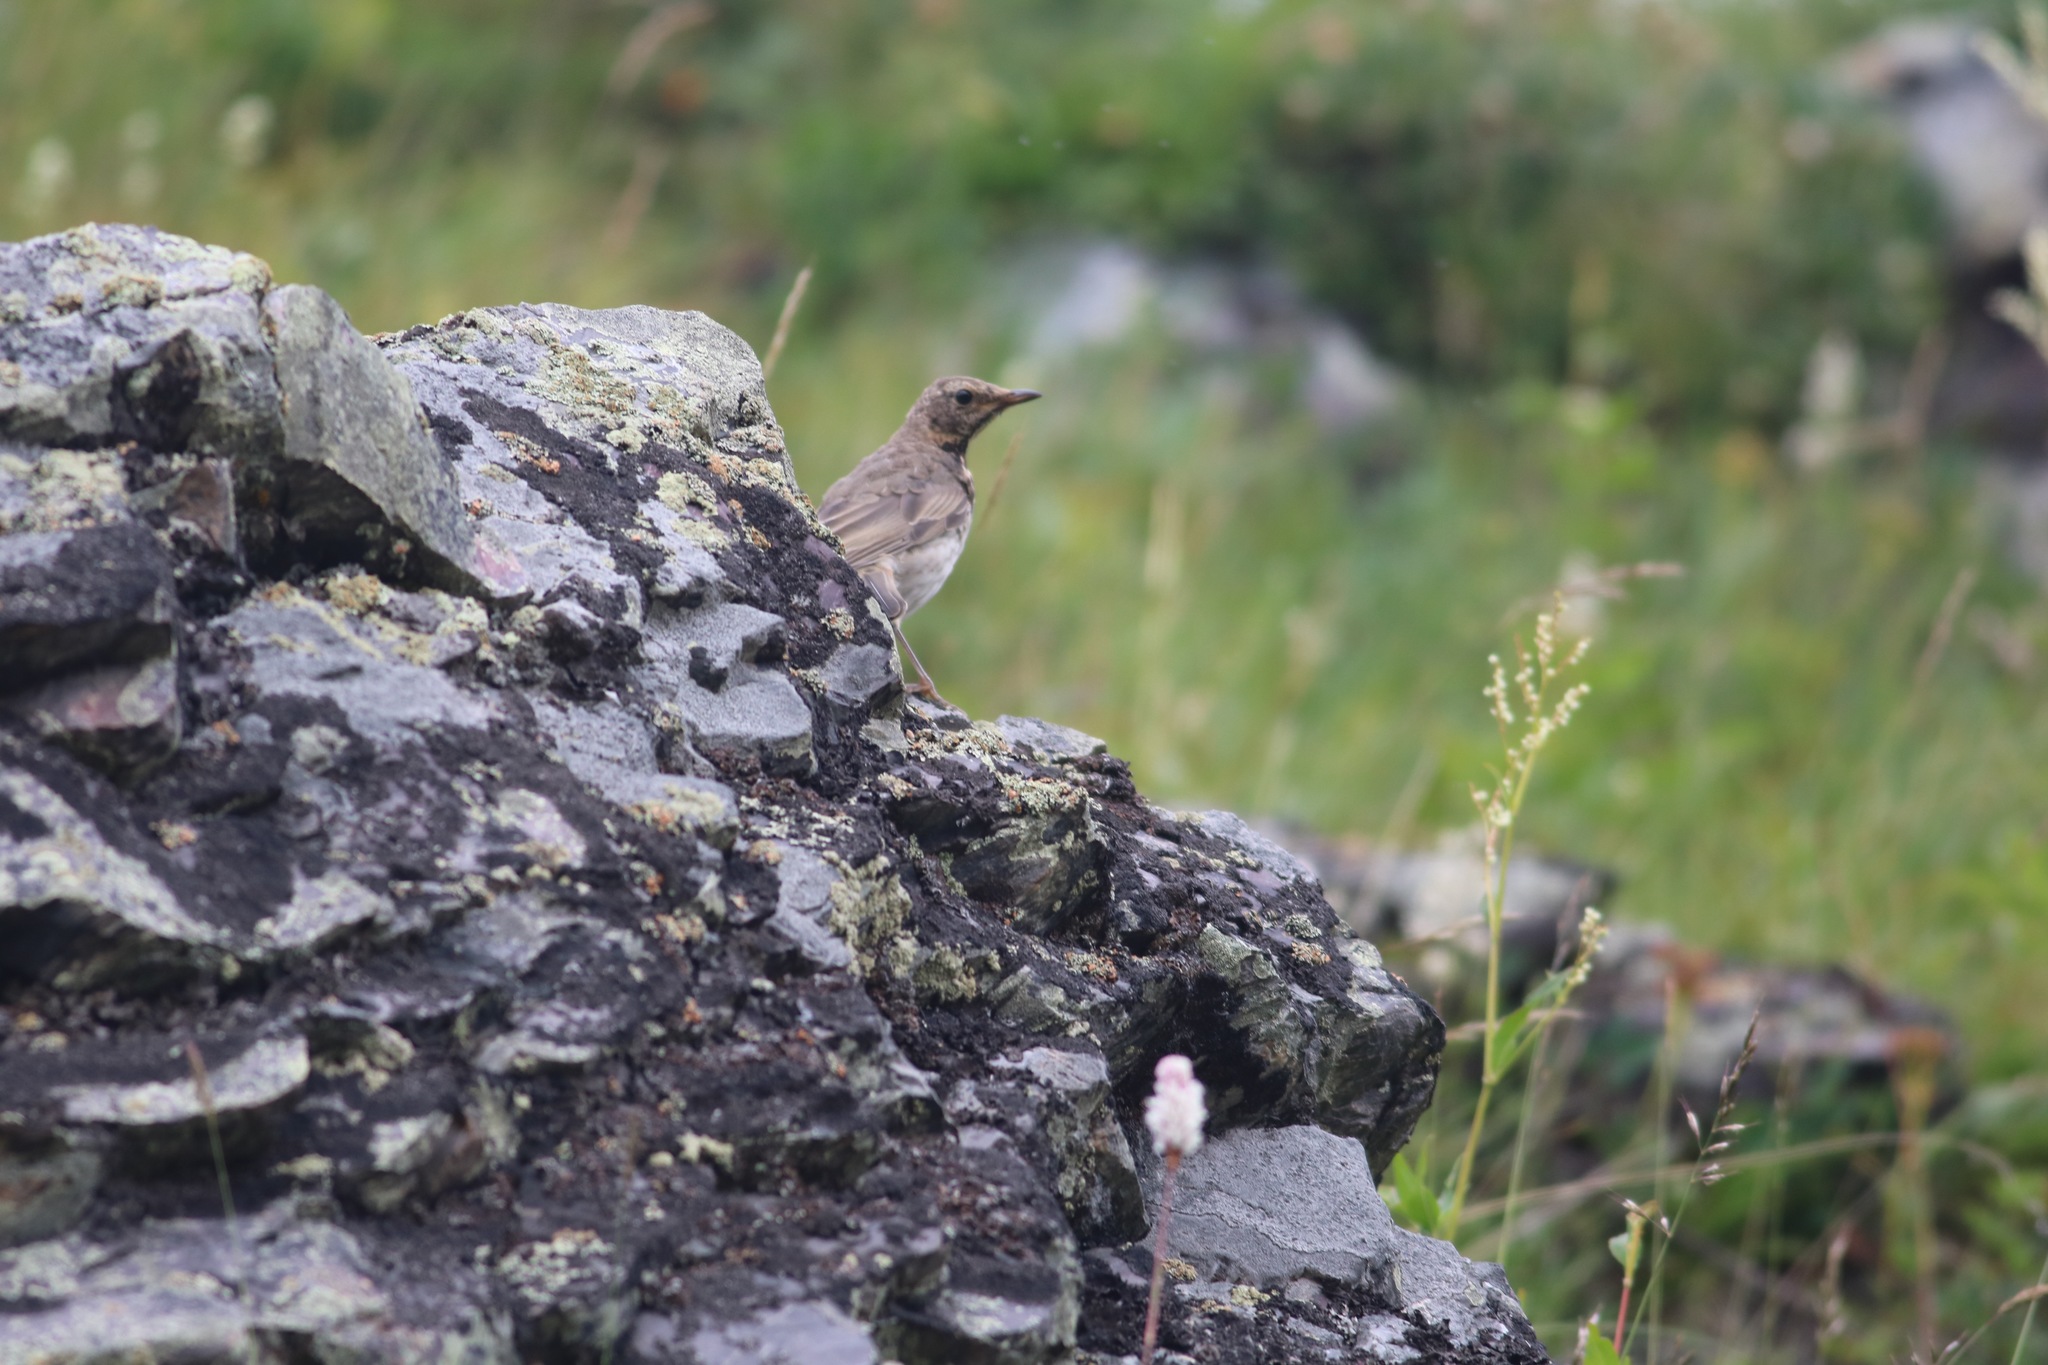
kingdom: Animalia
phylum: Chordata
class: Aves
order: Passeriformes
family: Turdidae
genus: Turdus
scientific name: Turdus atrogularis
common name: Black-throated thrush
